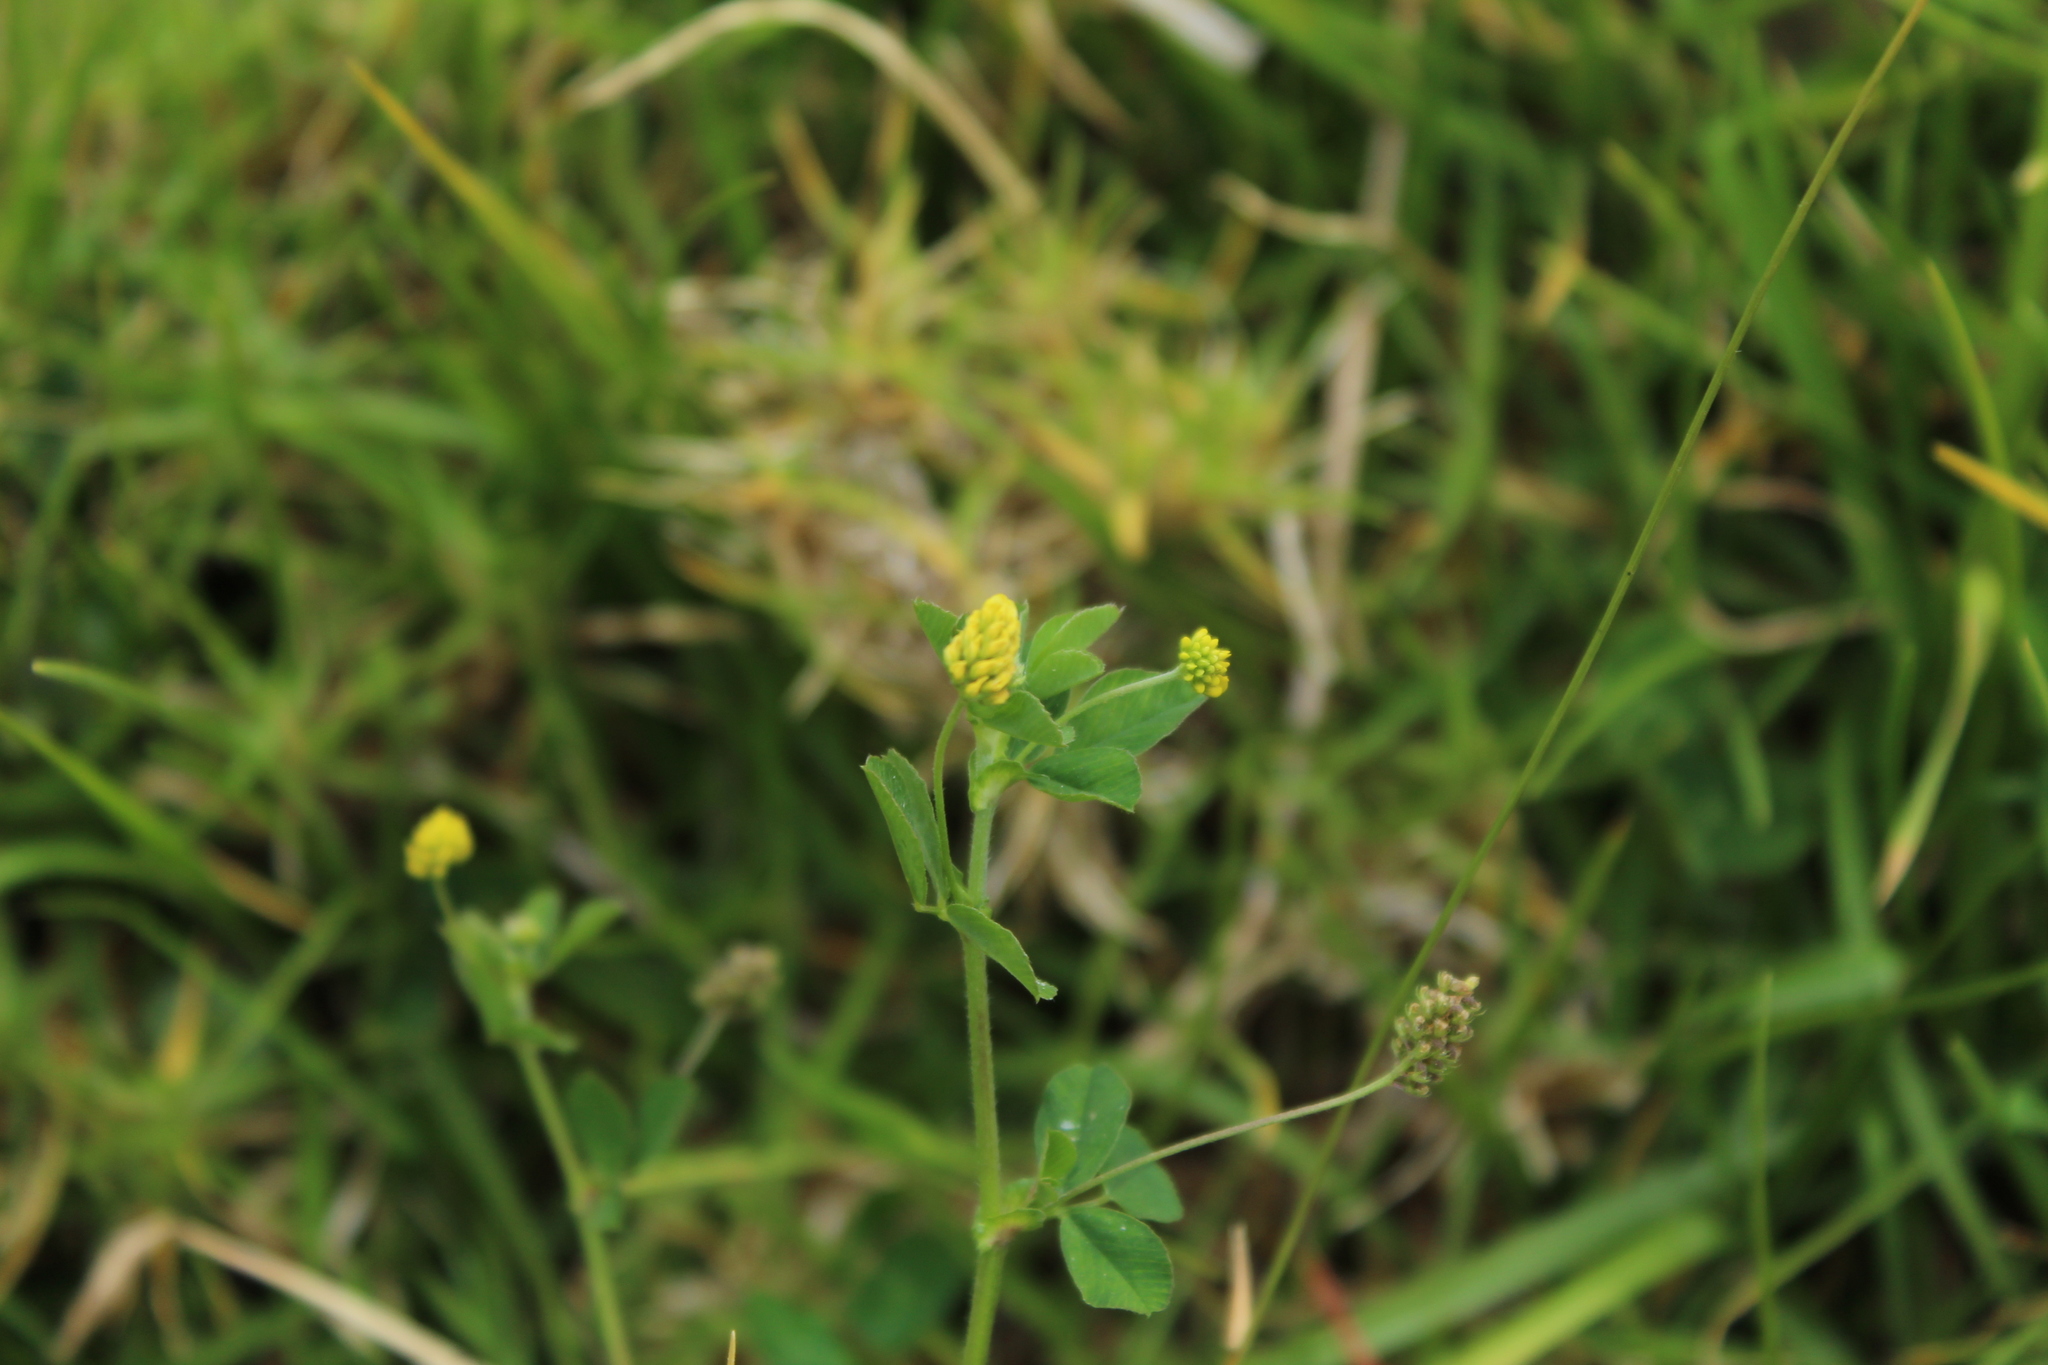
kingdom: Plantae
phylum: Tracheophyta
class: Magnoliopsida
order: Fabales
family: Fabaceae
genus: Medicago
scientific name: Medicago lupulina
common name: Black medick
